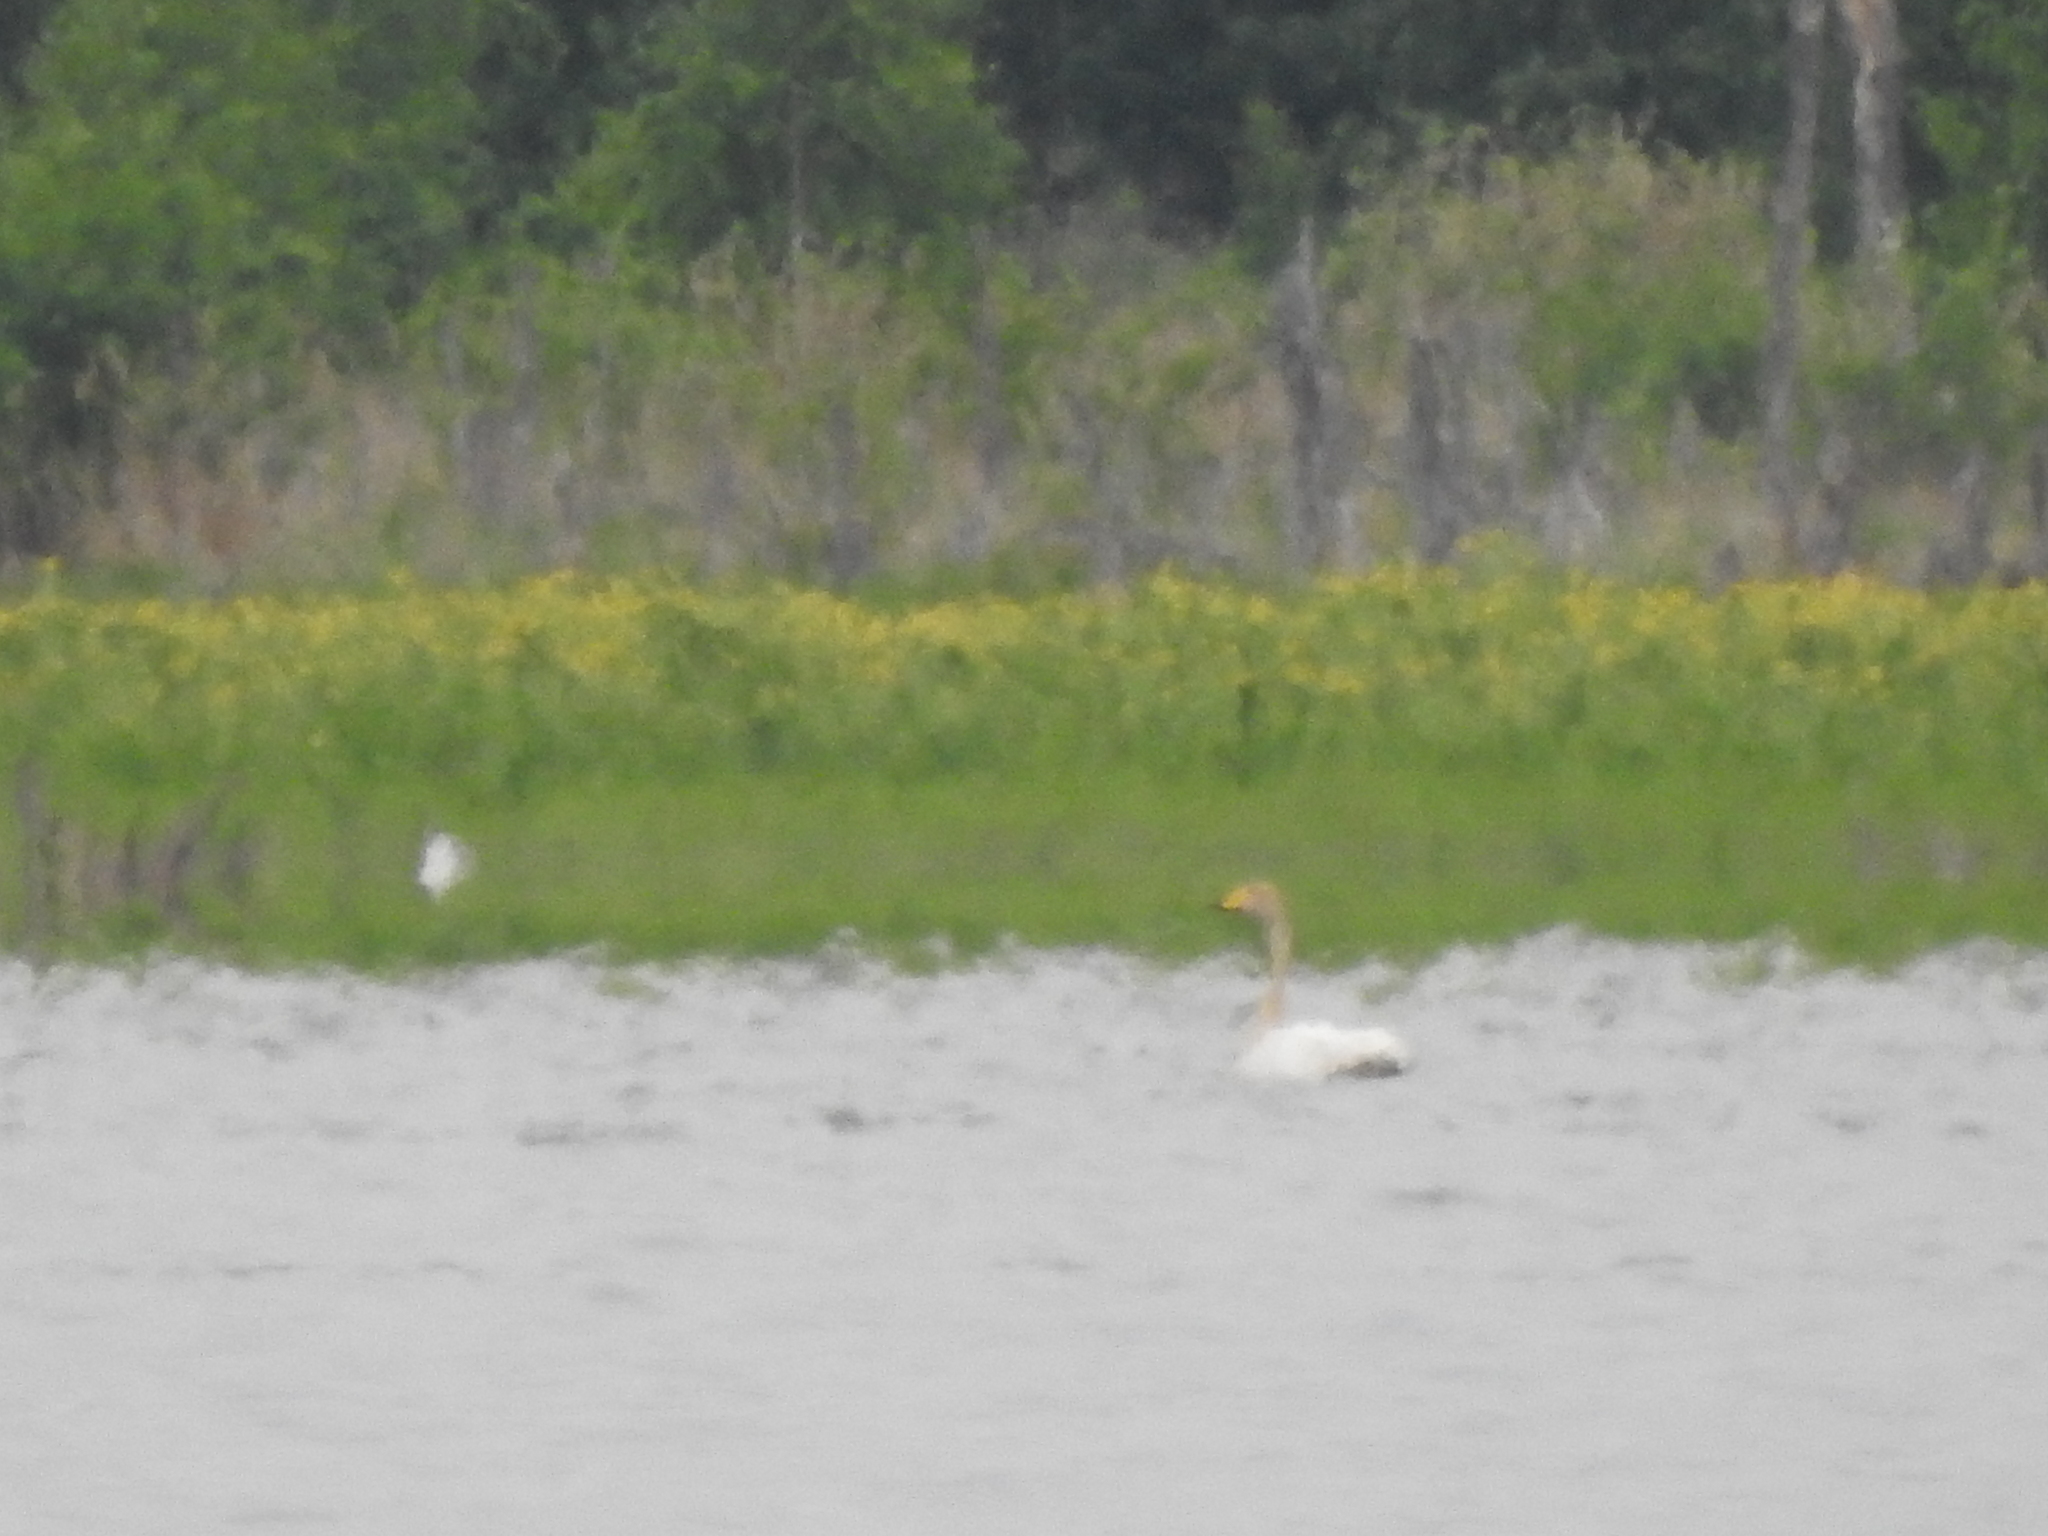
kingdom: Animalia
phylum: Chordata
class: Aves
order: Anseriformes
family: Anatidae
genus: Cygnus
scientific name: Cygnus cygnus
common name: Whooper swan
